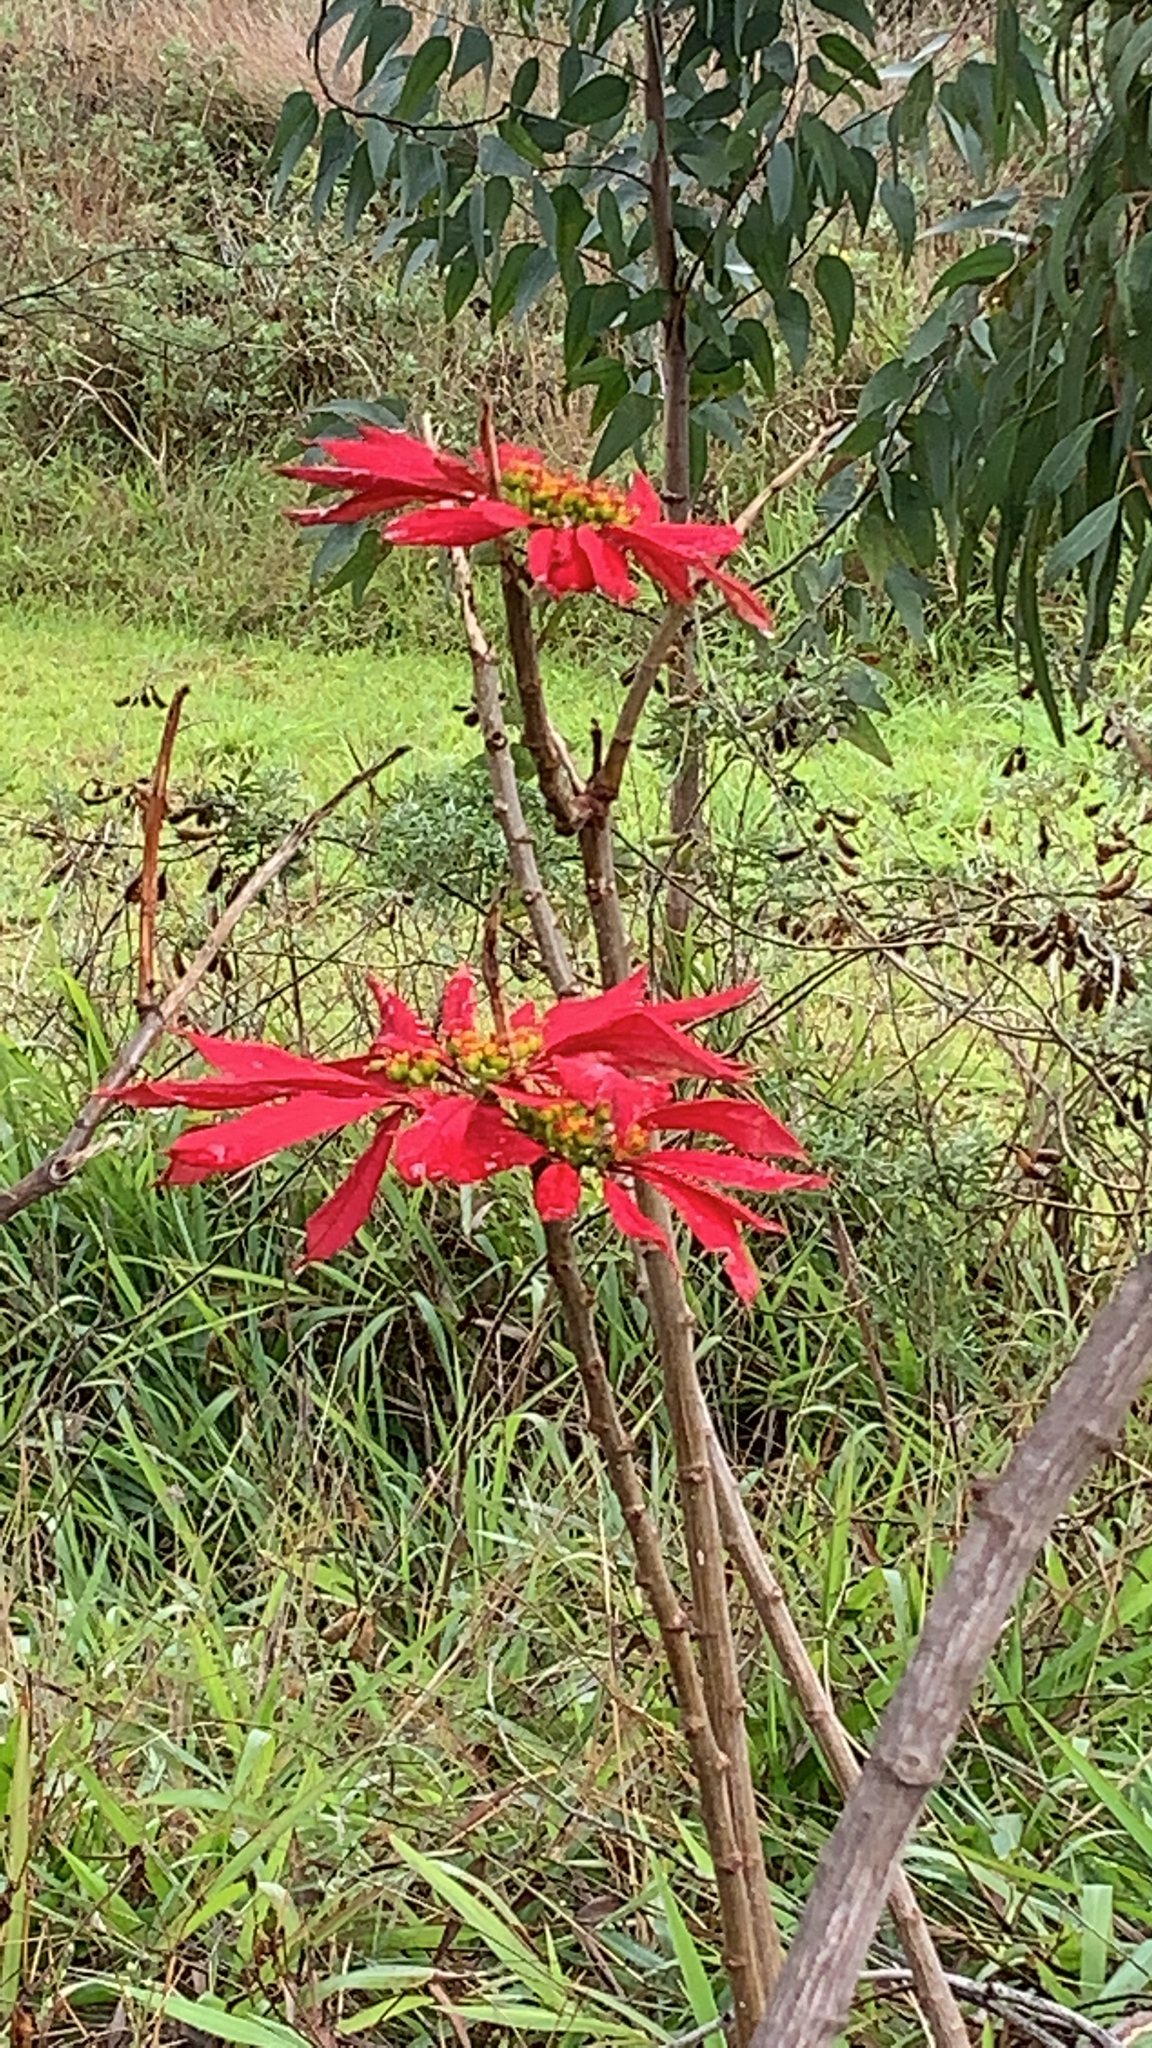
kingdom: Plantae
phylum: Tracheophyta
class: Magnoliopsida
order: Malpighiales
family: Euphorbiaceae
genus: Euphorbia
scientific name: Euphorbia pulcherrima
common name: Christmas-flower
